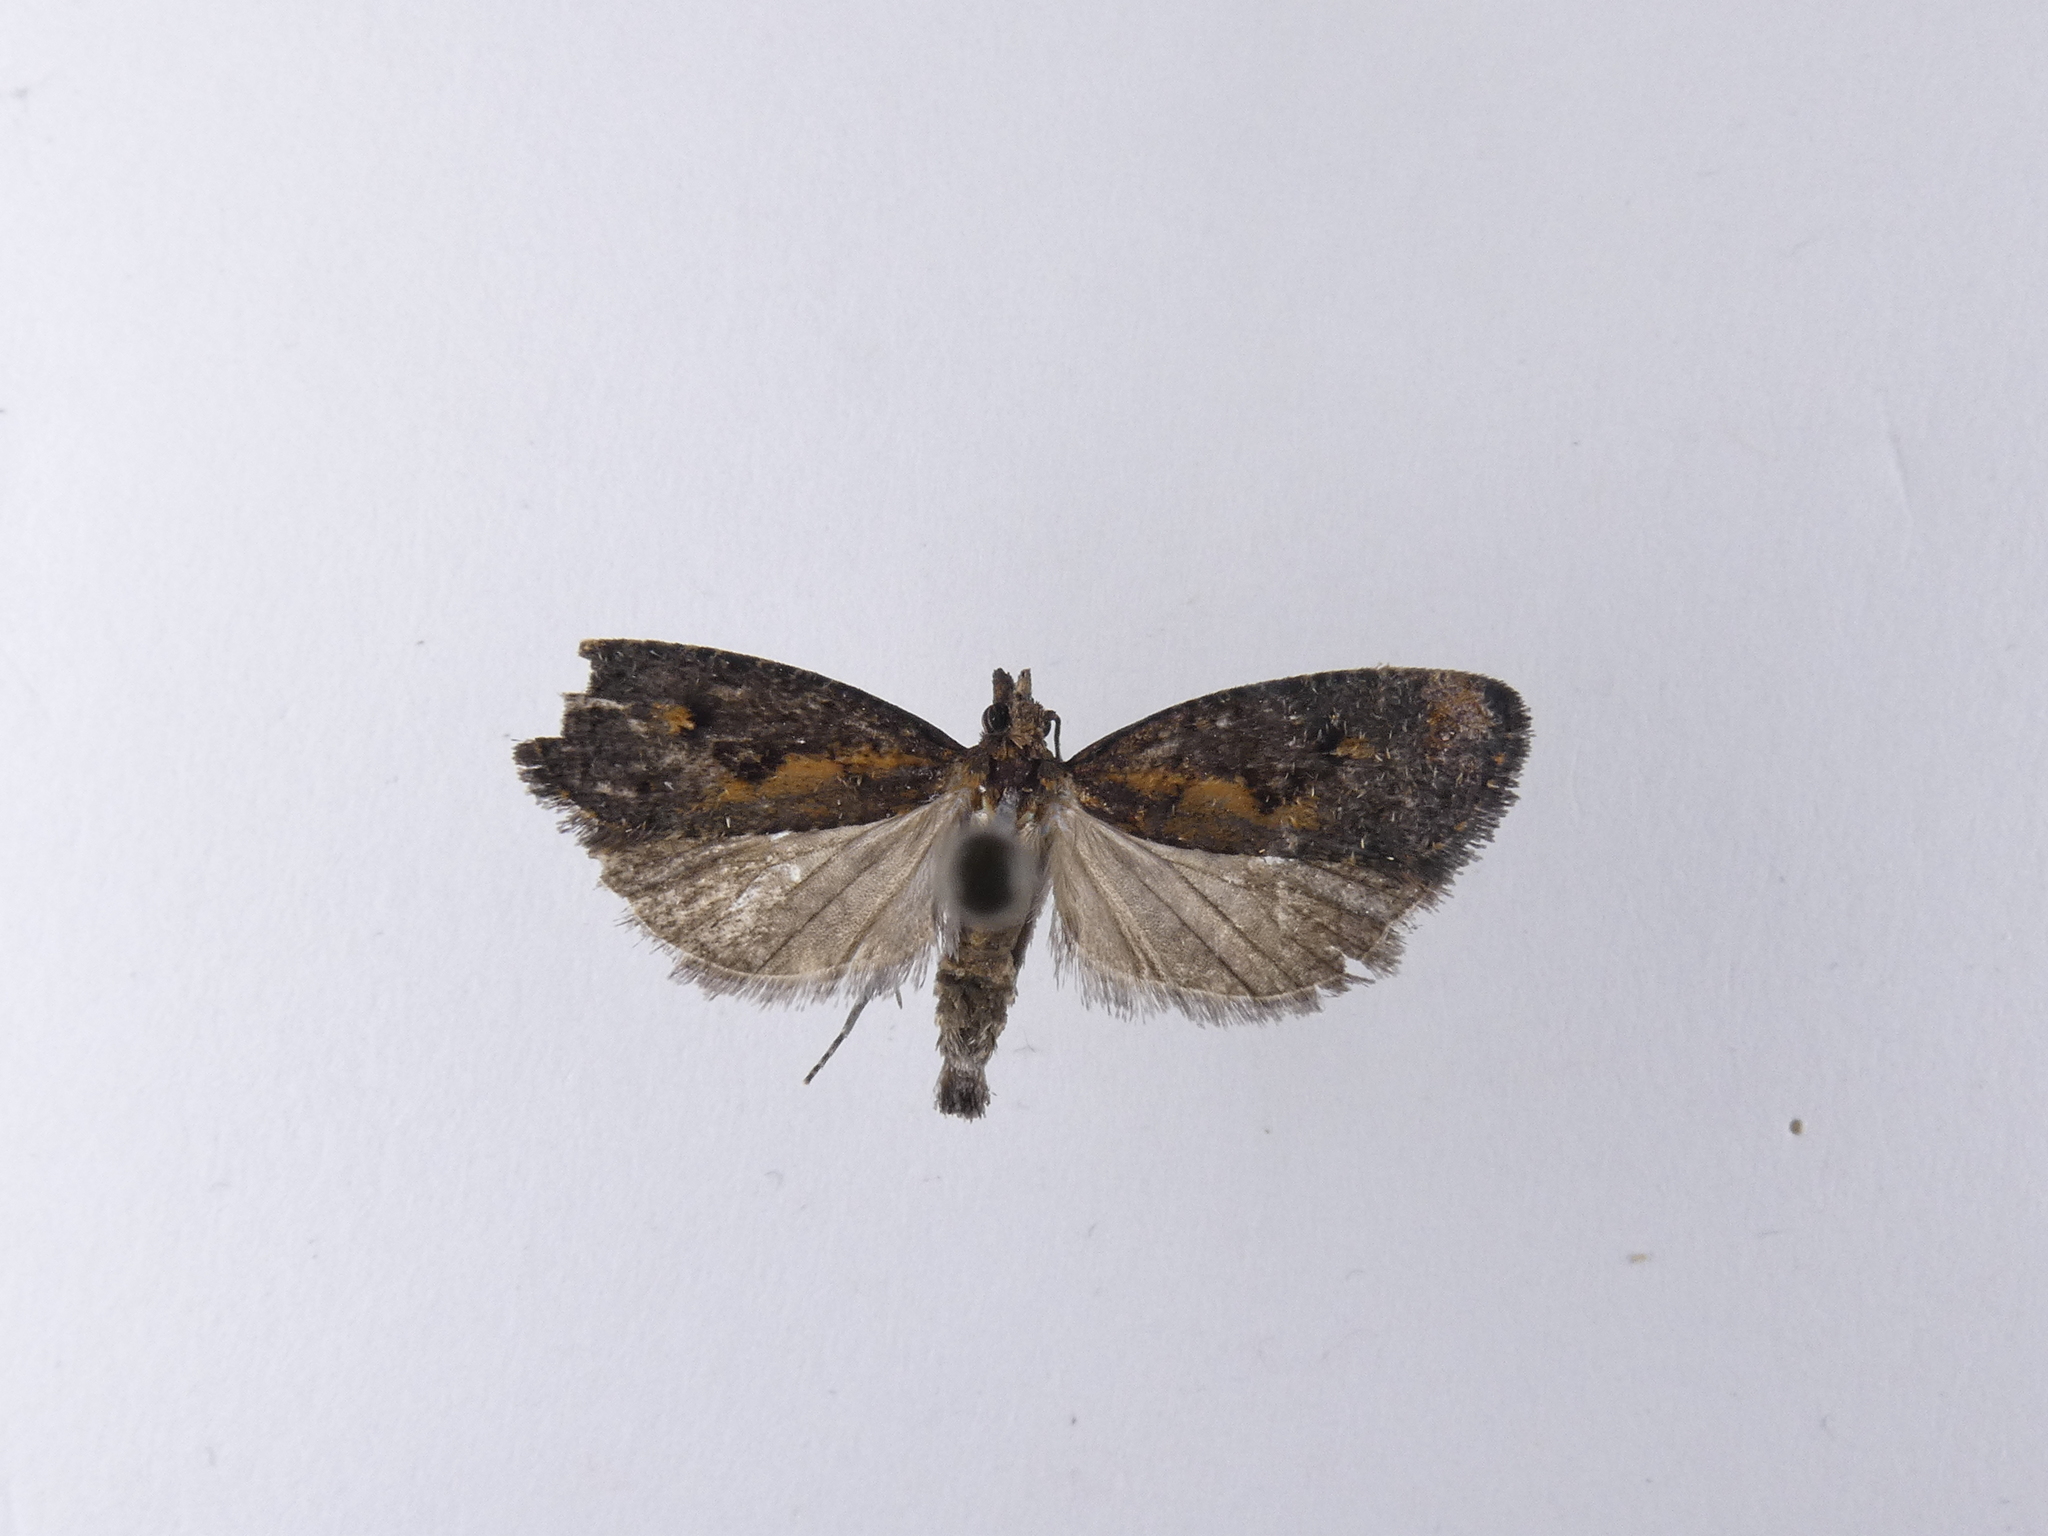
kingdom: Animalia
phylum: Arthropoda
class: Insecta
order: Lepidoptera
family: Tortricidae
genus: Cryptaspasma
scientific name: Cryptaspasma querula
